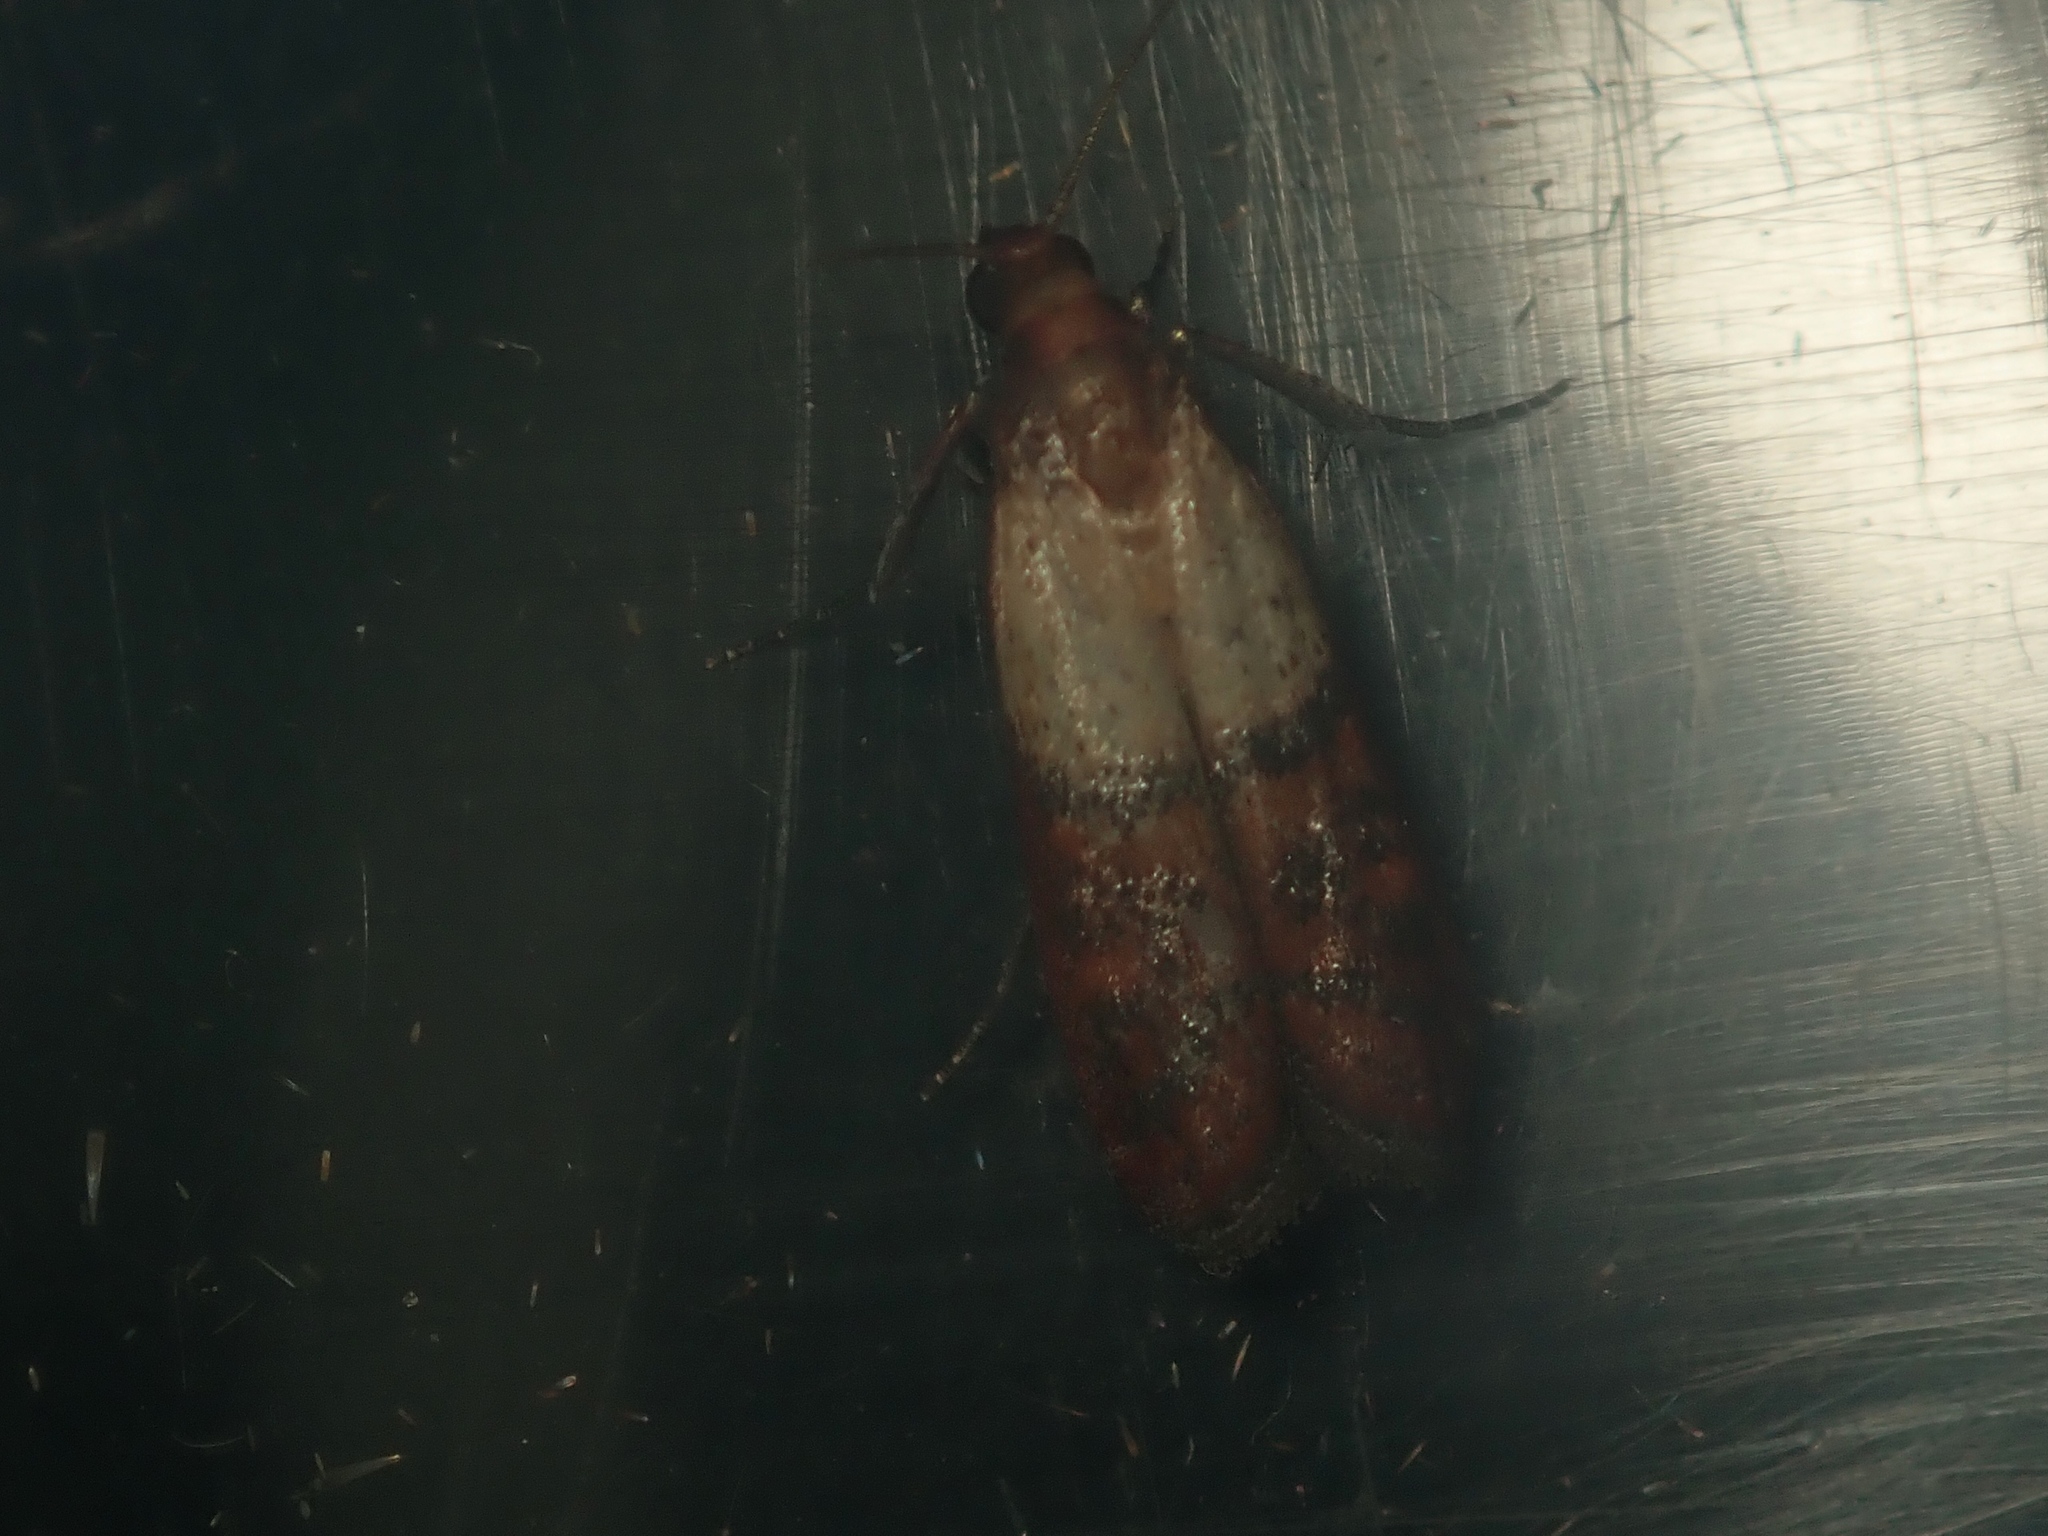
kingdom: Animalia
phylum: Arthropoda
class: Insecta
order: Lepidoptera
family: Pyralidae
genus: Plodia
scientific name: Plodia interpunctella
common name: Indian meal moth
